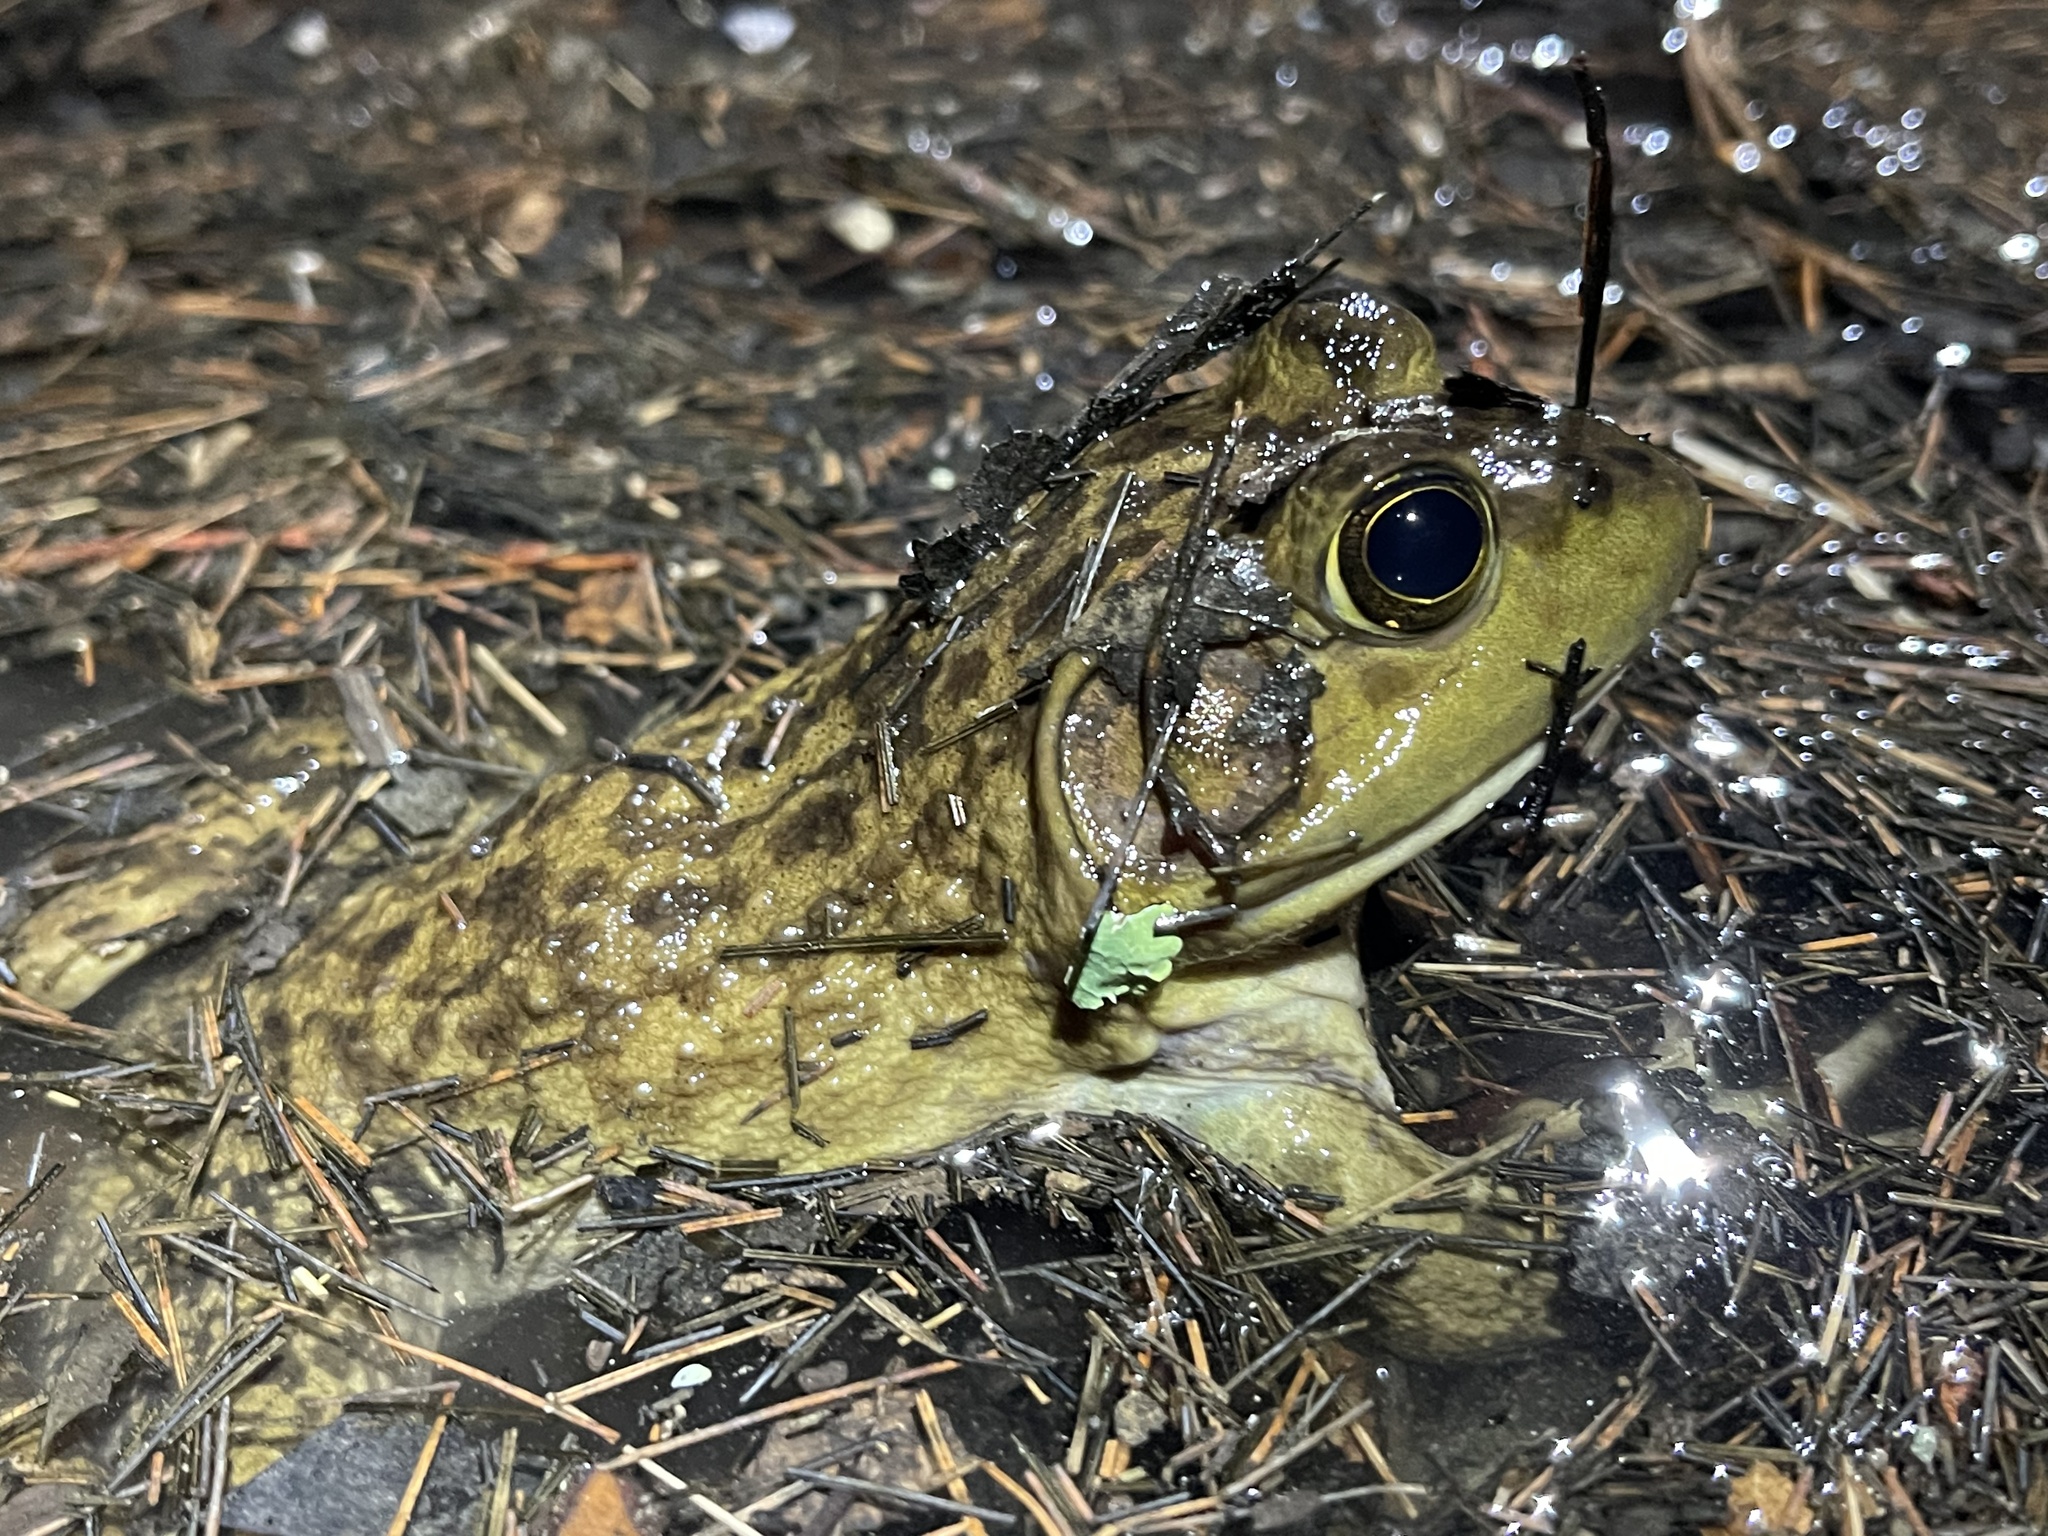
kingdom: Animalia
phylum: Chordata
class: Amphibia
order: Anura
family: Ranidae
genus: Lithobates
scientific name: Lithobates catesbeianus
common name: American bullfrog
